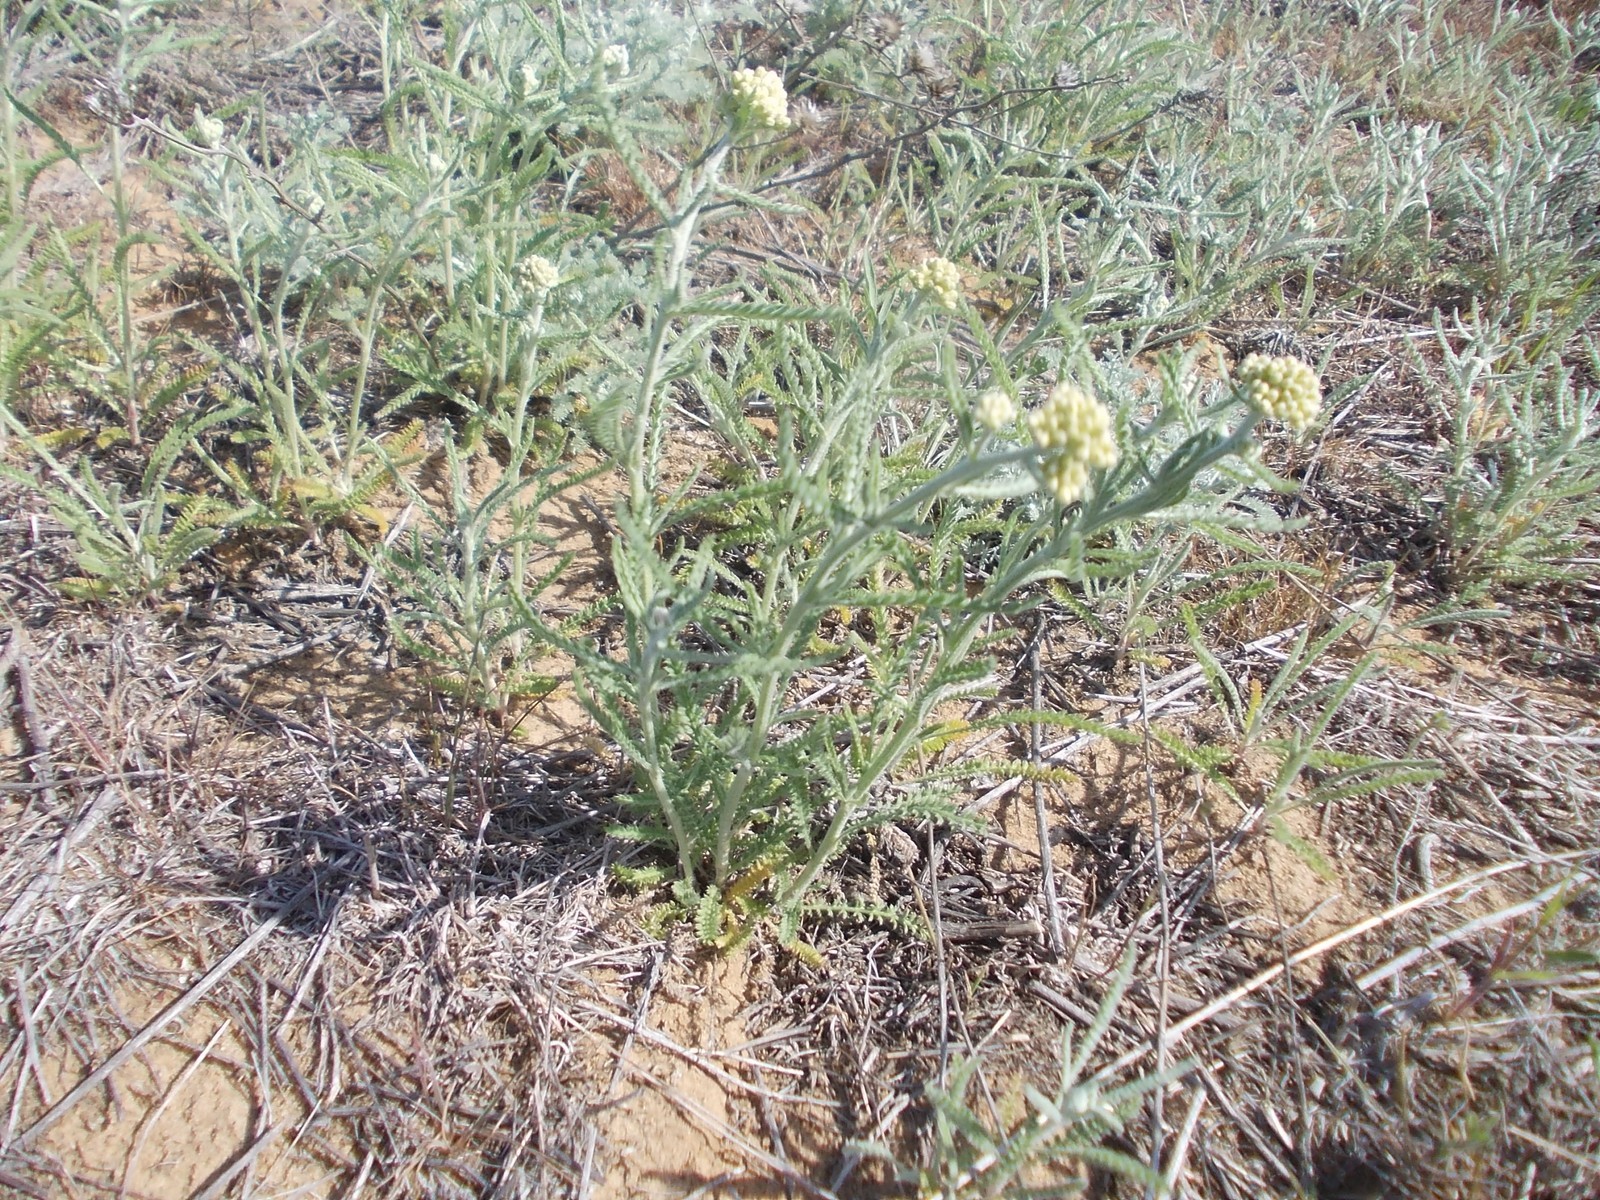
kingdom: Plantae
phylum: Tracheophyta
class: Magnoliopsida
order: Asterales
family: Asteraceae
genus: Achillea
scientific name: Achillea micrantha
